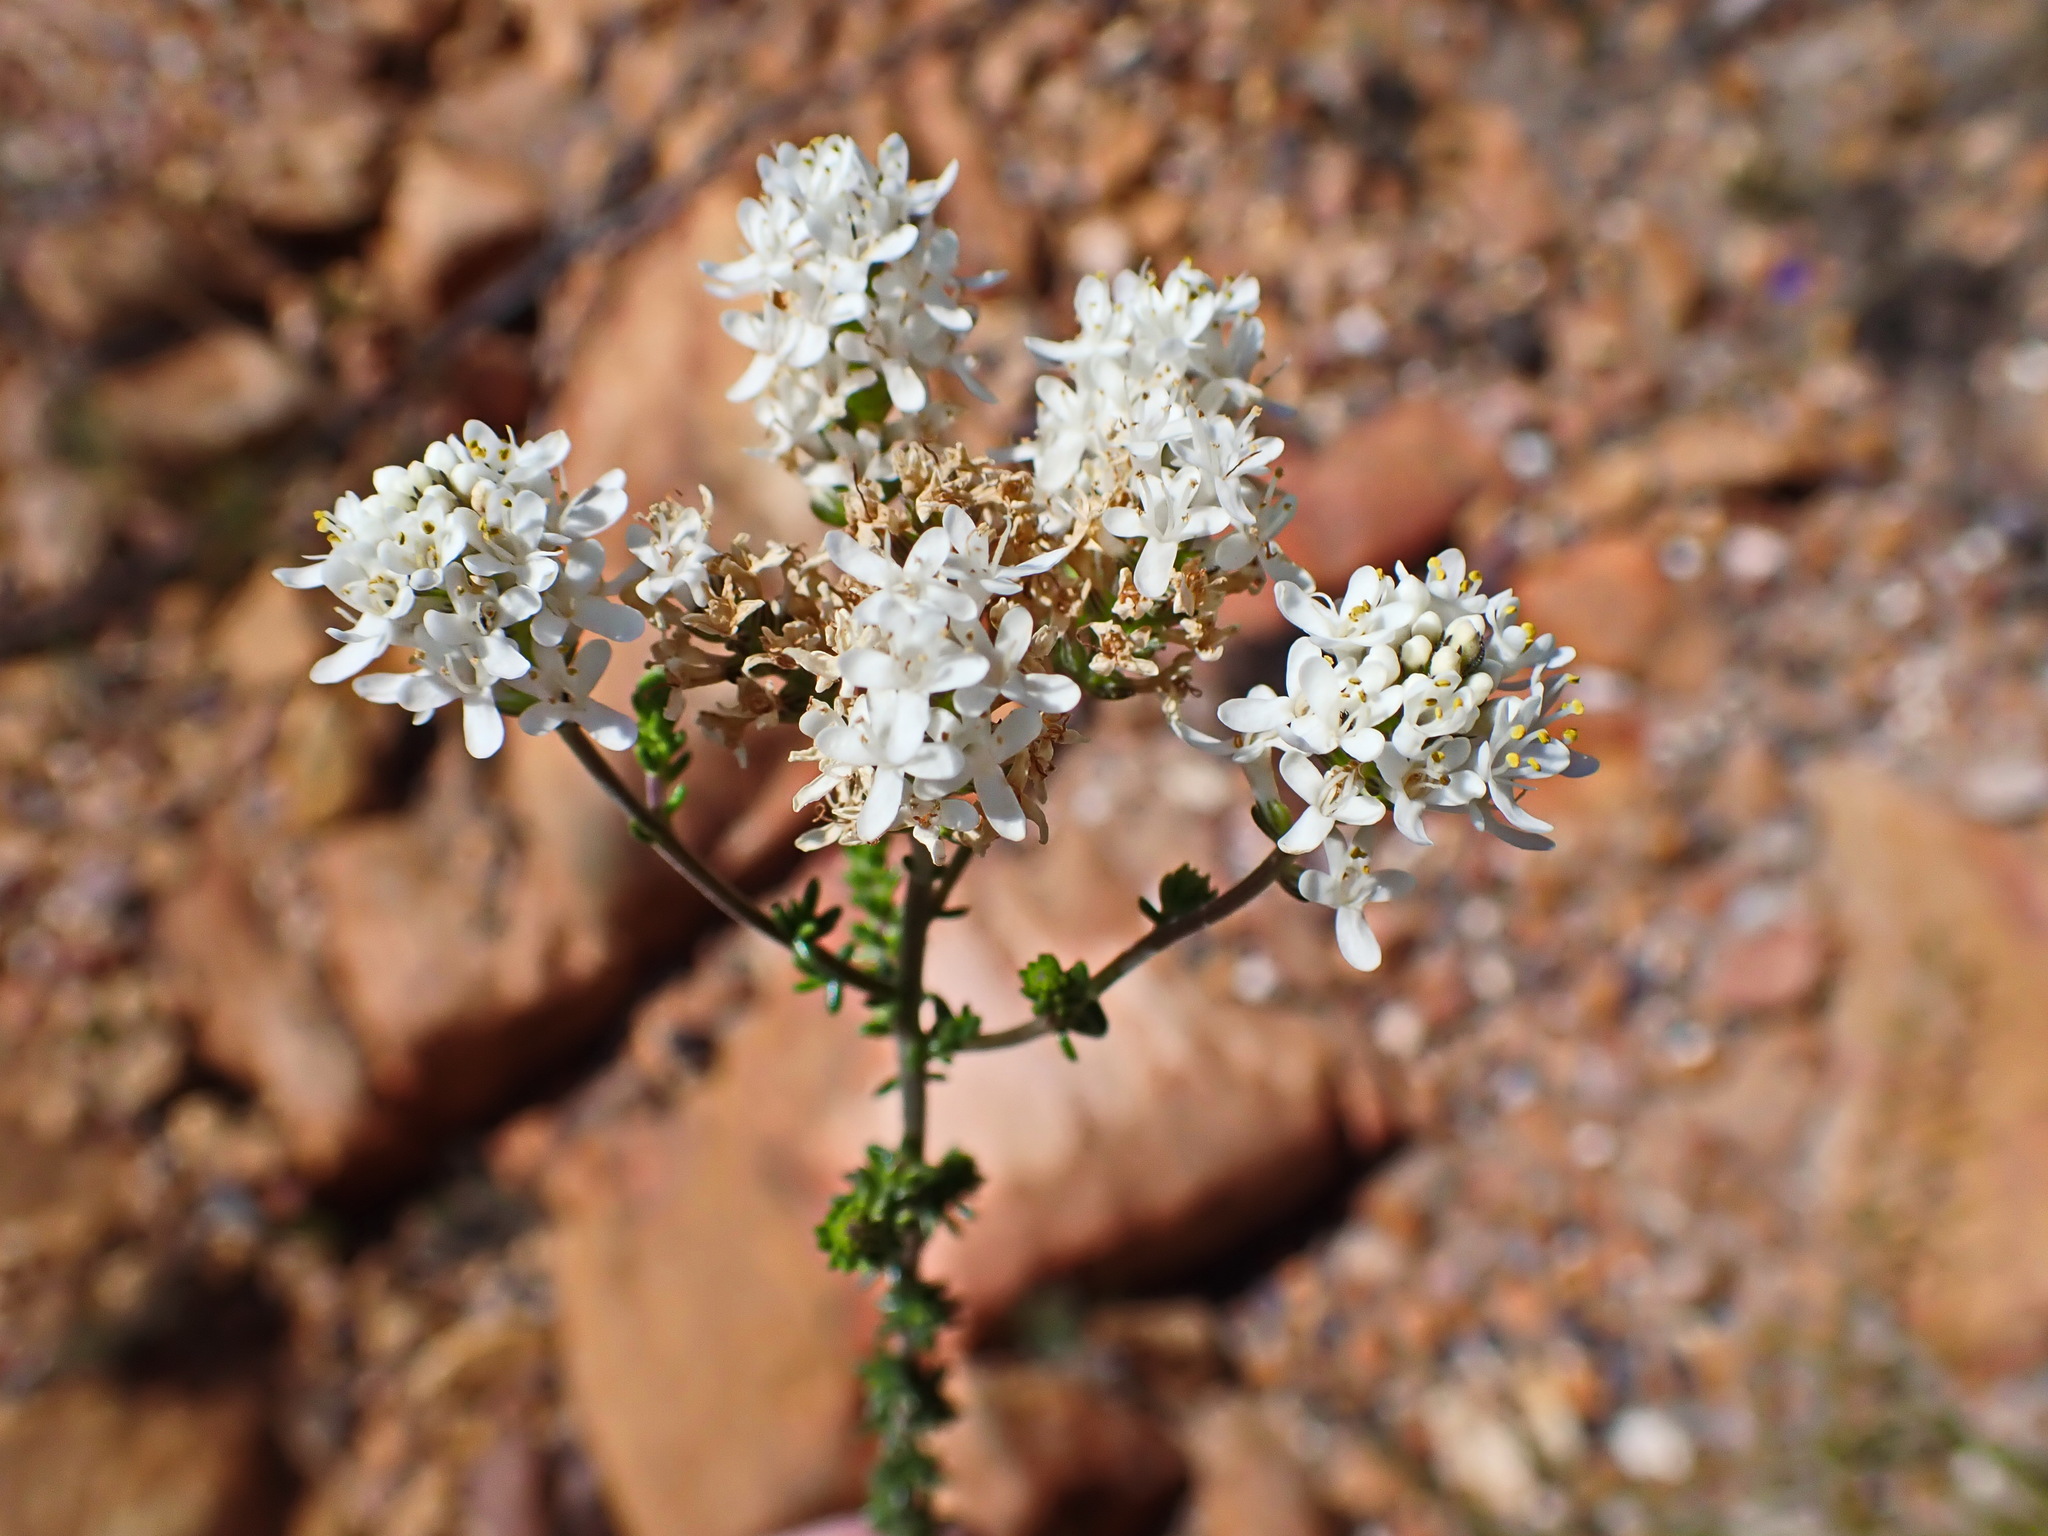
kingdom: Plantae
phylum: Tracheophyta
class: Magnoliopsida
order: Lamiales
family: Scrophulariaceae
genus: Selago
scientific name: Selago glomerata
